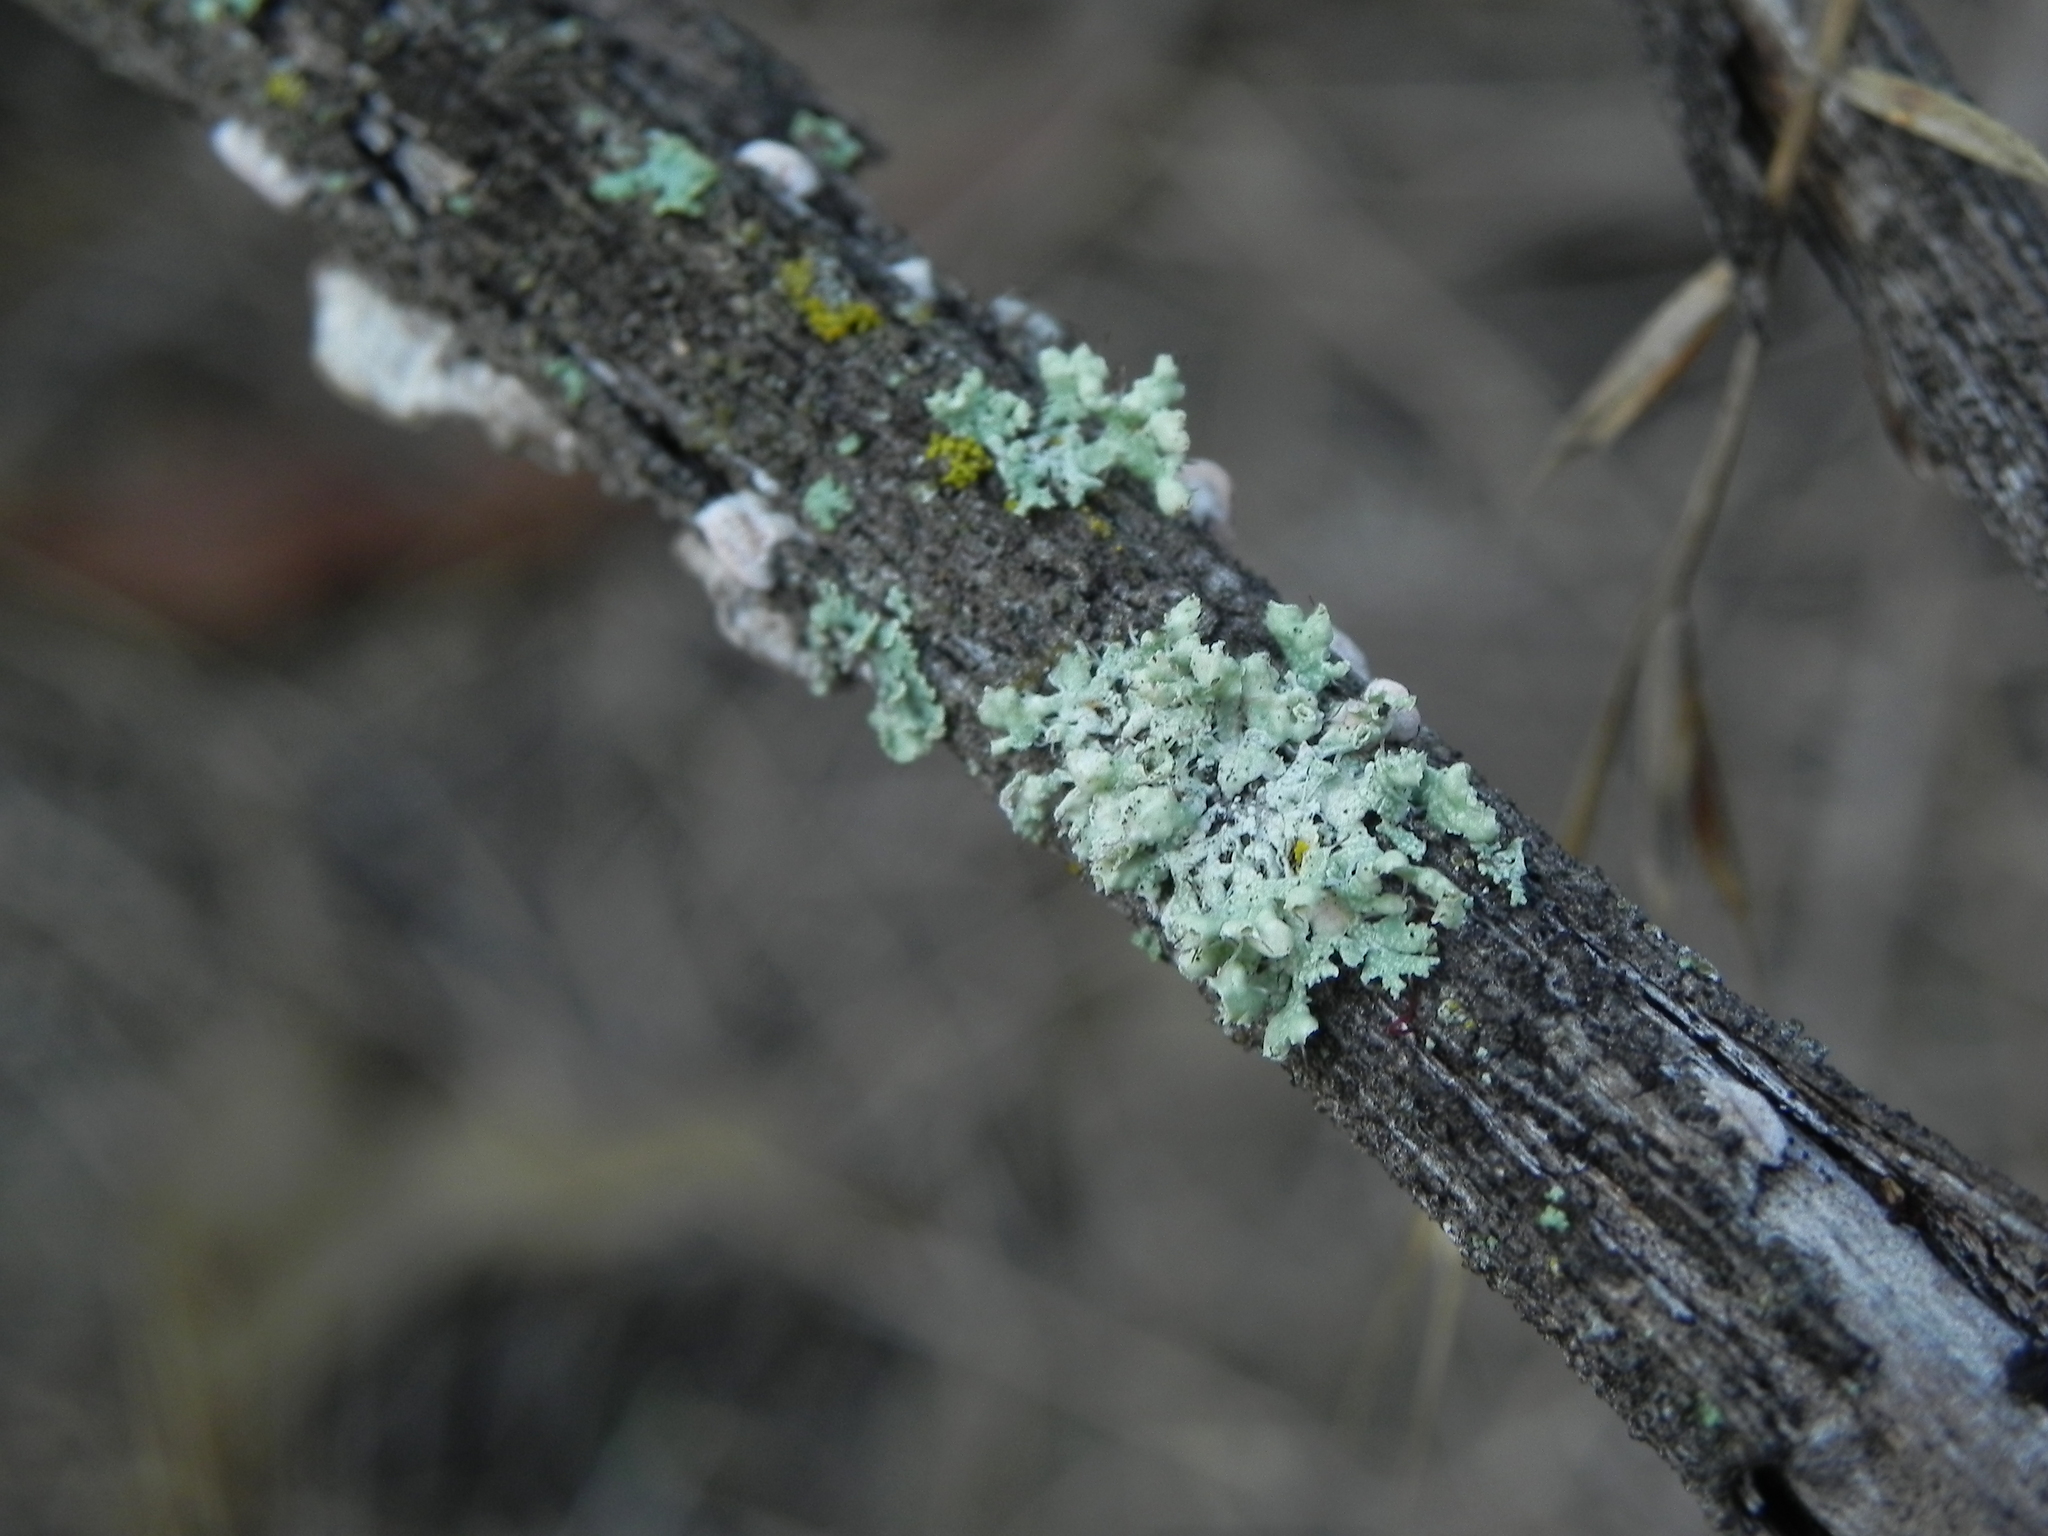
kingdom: Fungi
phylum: Ascomycota
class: Lecanoromycetes
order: Caliciales
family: Physciaceae
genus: Physcia
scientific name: Physcia adscendens
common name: Hooded rosette lichen
